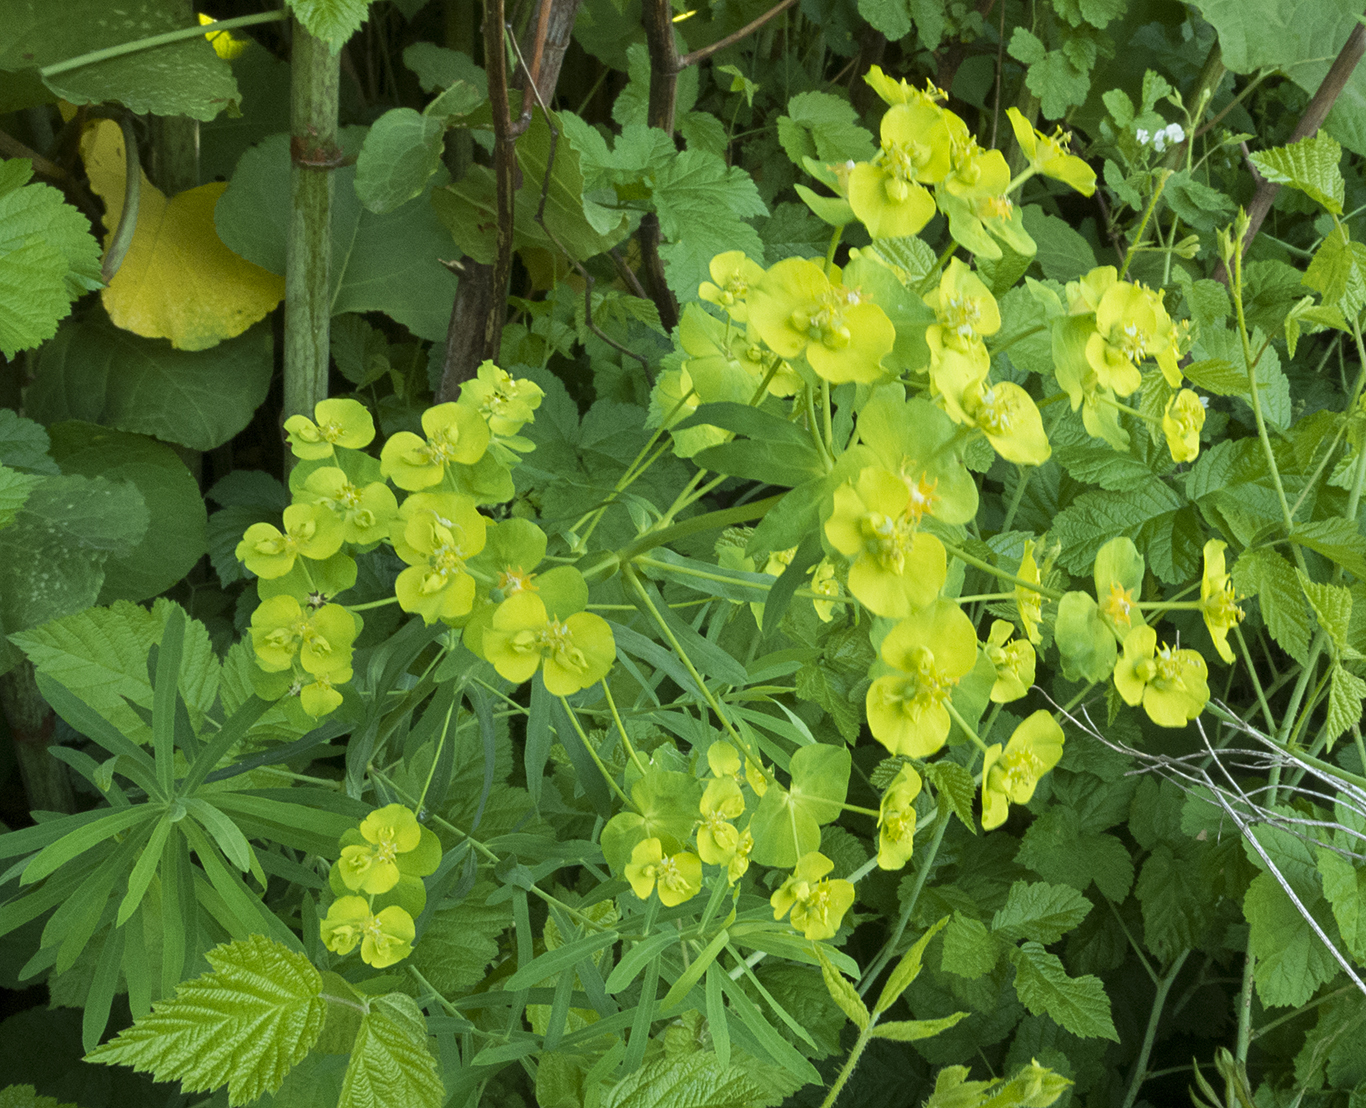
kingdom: Plantae
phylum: Tracheophyta
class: Magnoliopsida
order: Malpighiales
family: Euphorbiaceae
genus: Euphorbia
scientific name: Euphorbia virgata
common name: Leafy spurge
